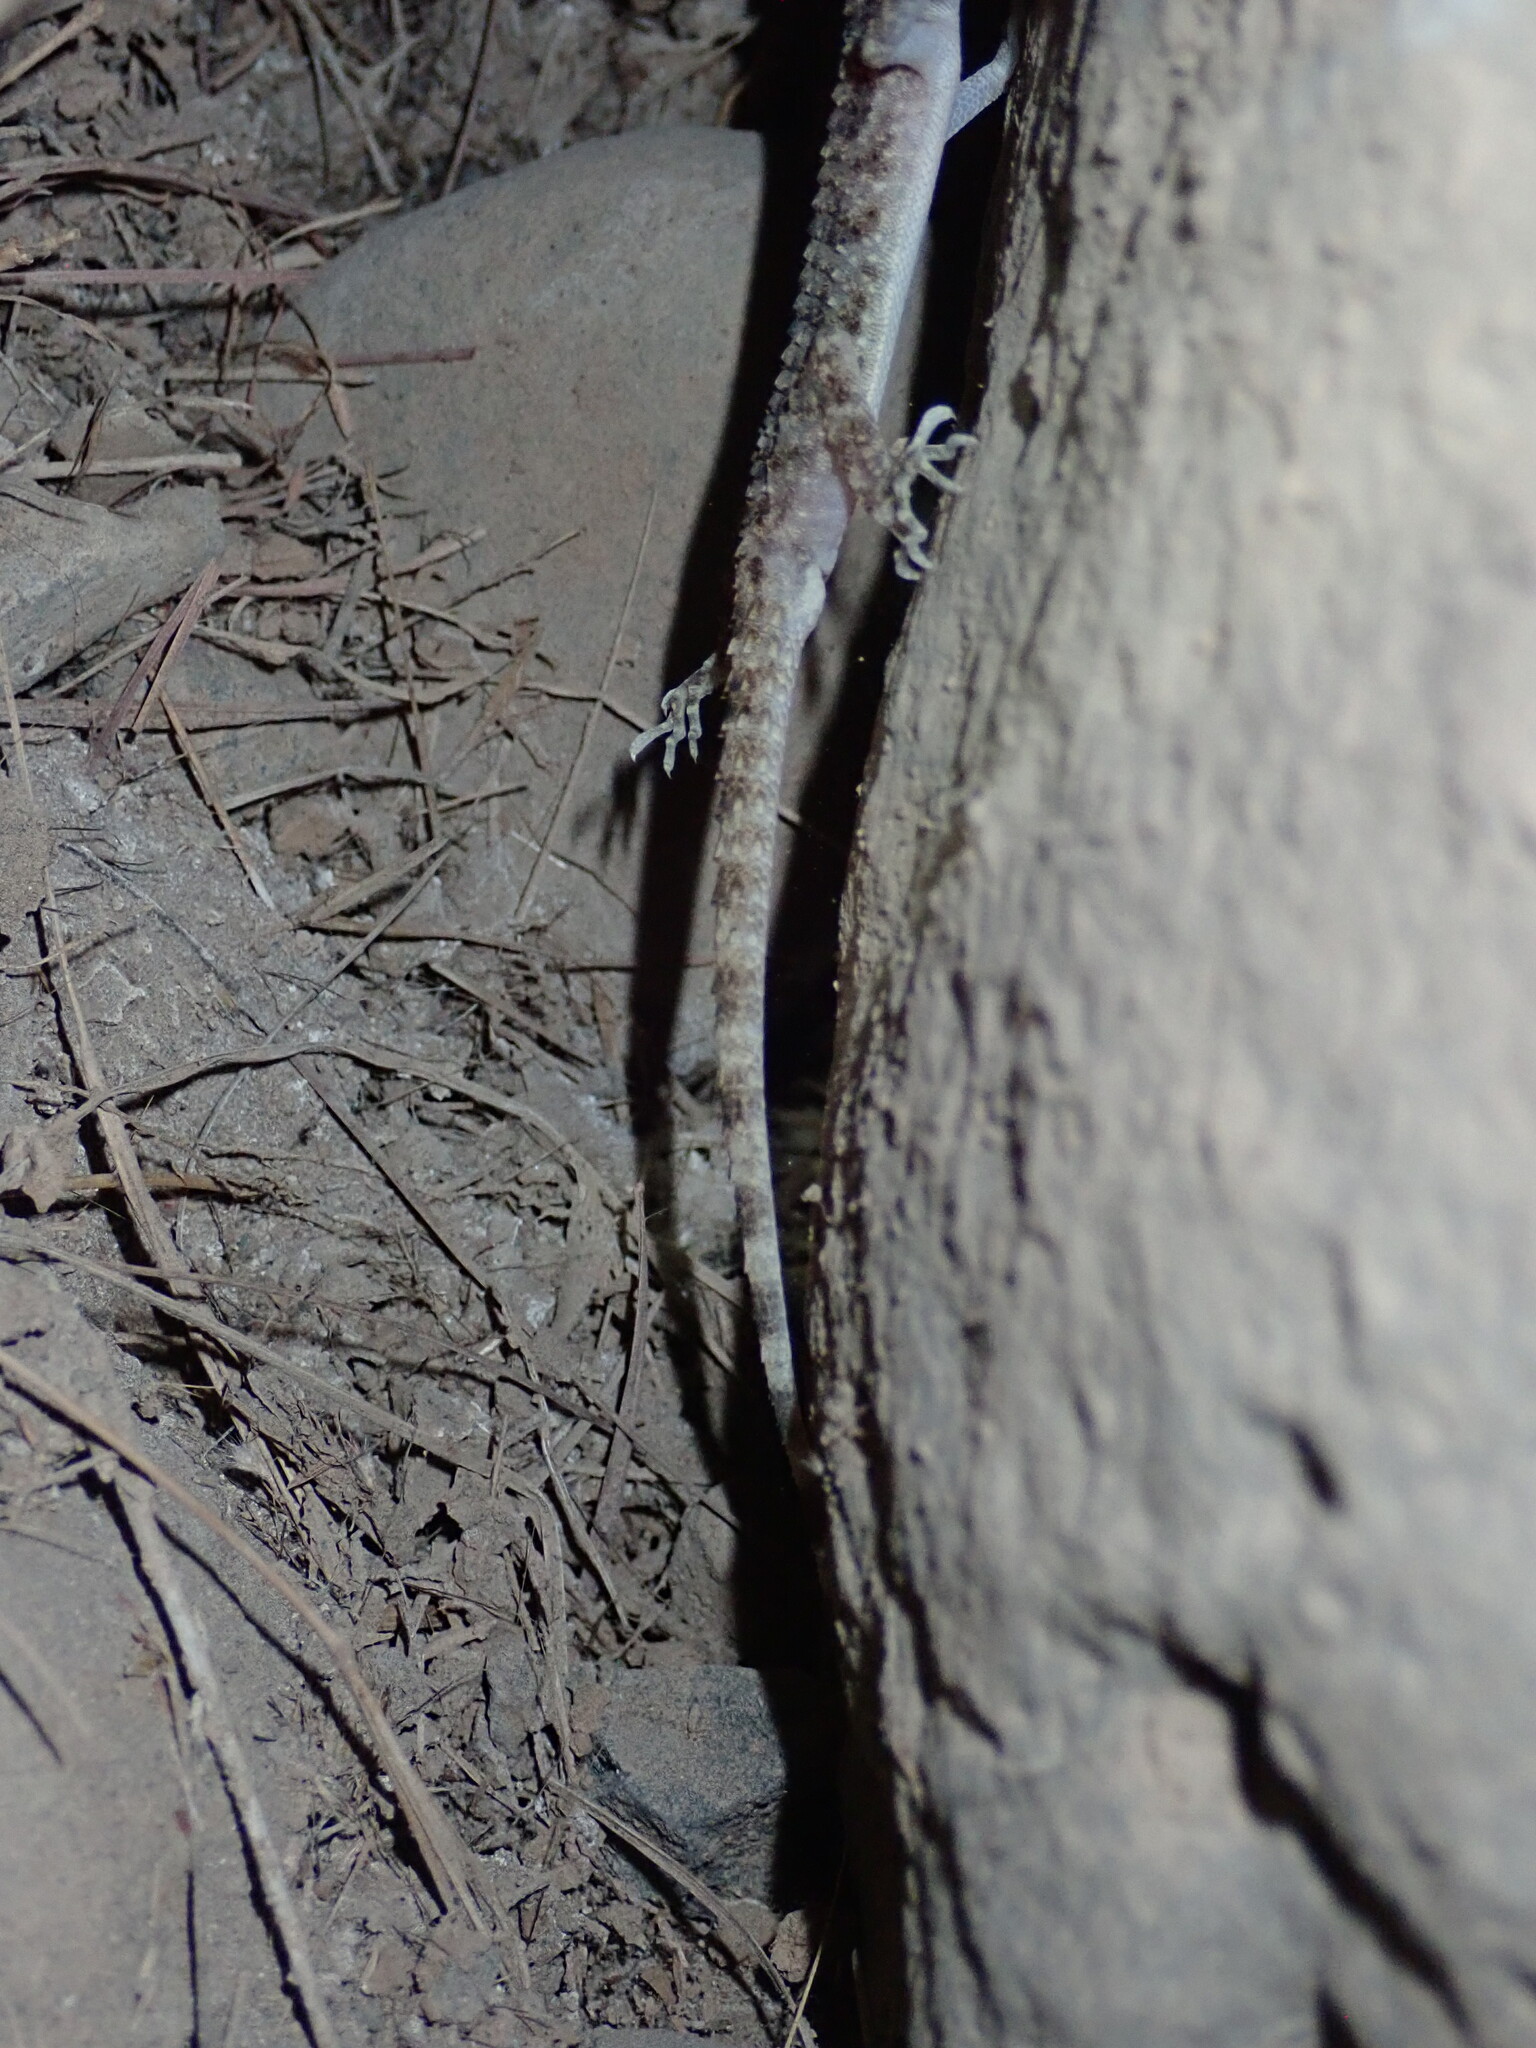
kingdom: Animalia
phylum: Chordata
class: Squamata
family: Gekkonidae
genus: Cyrtopodion
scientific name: Cyrtopodion scabrum
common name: Rough-tailed gecko
